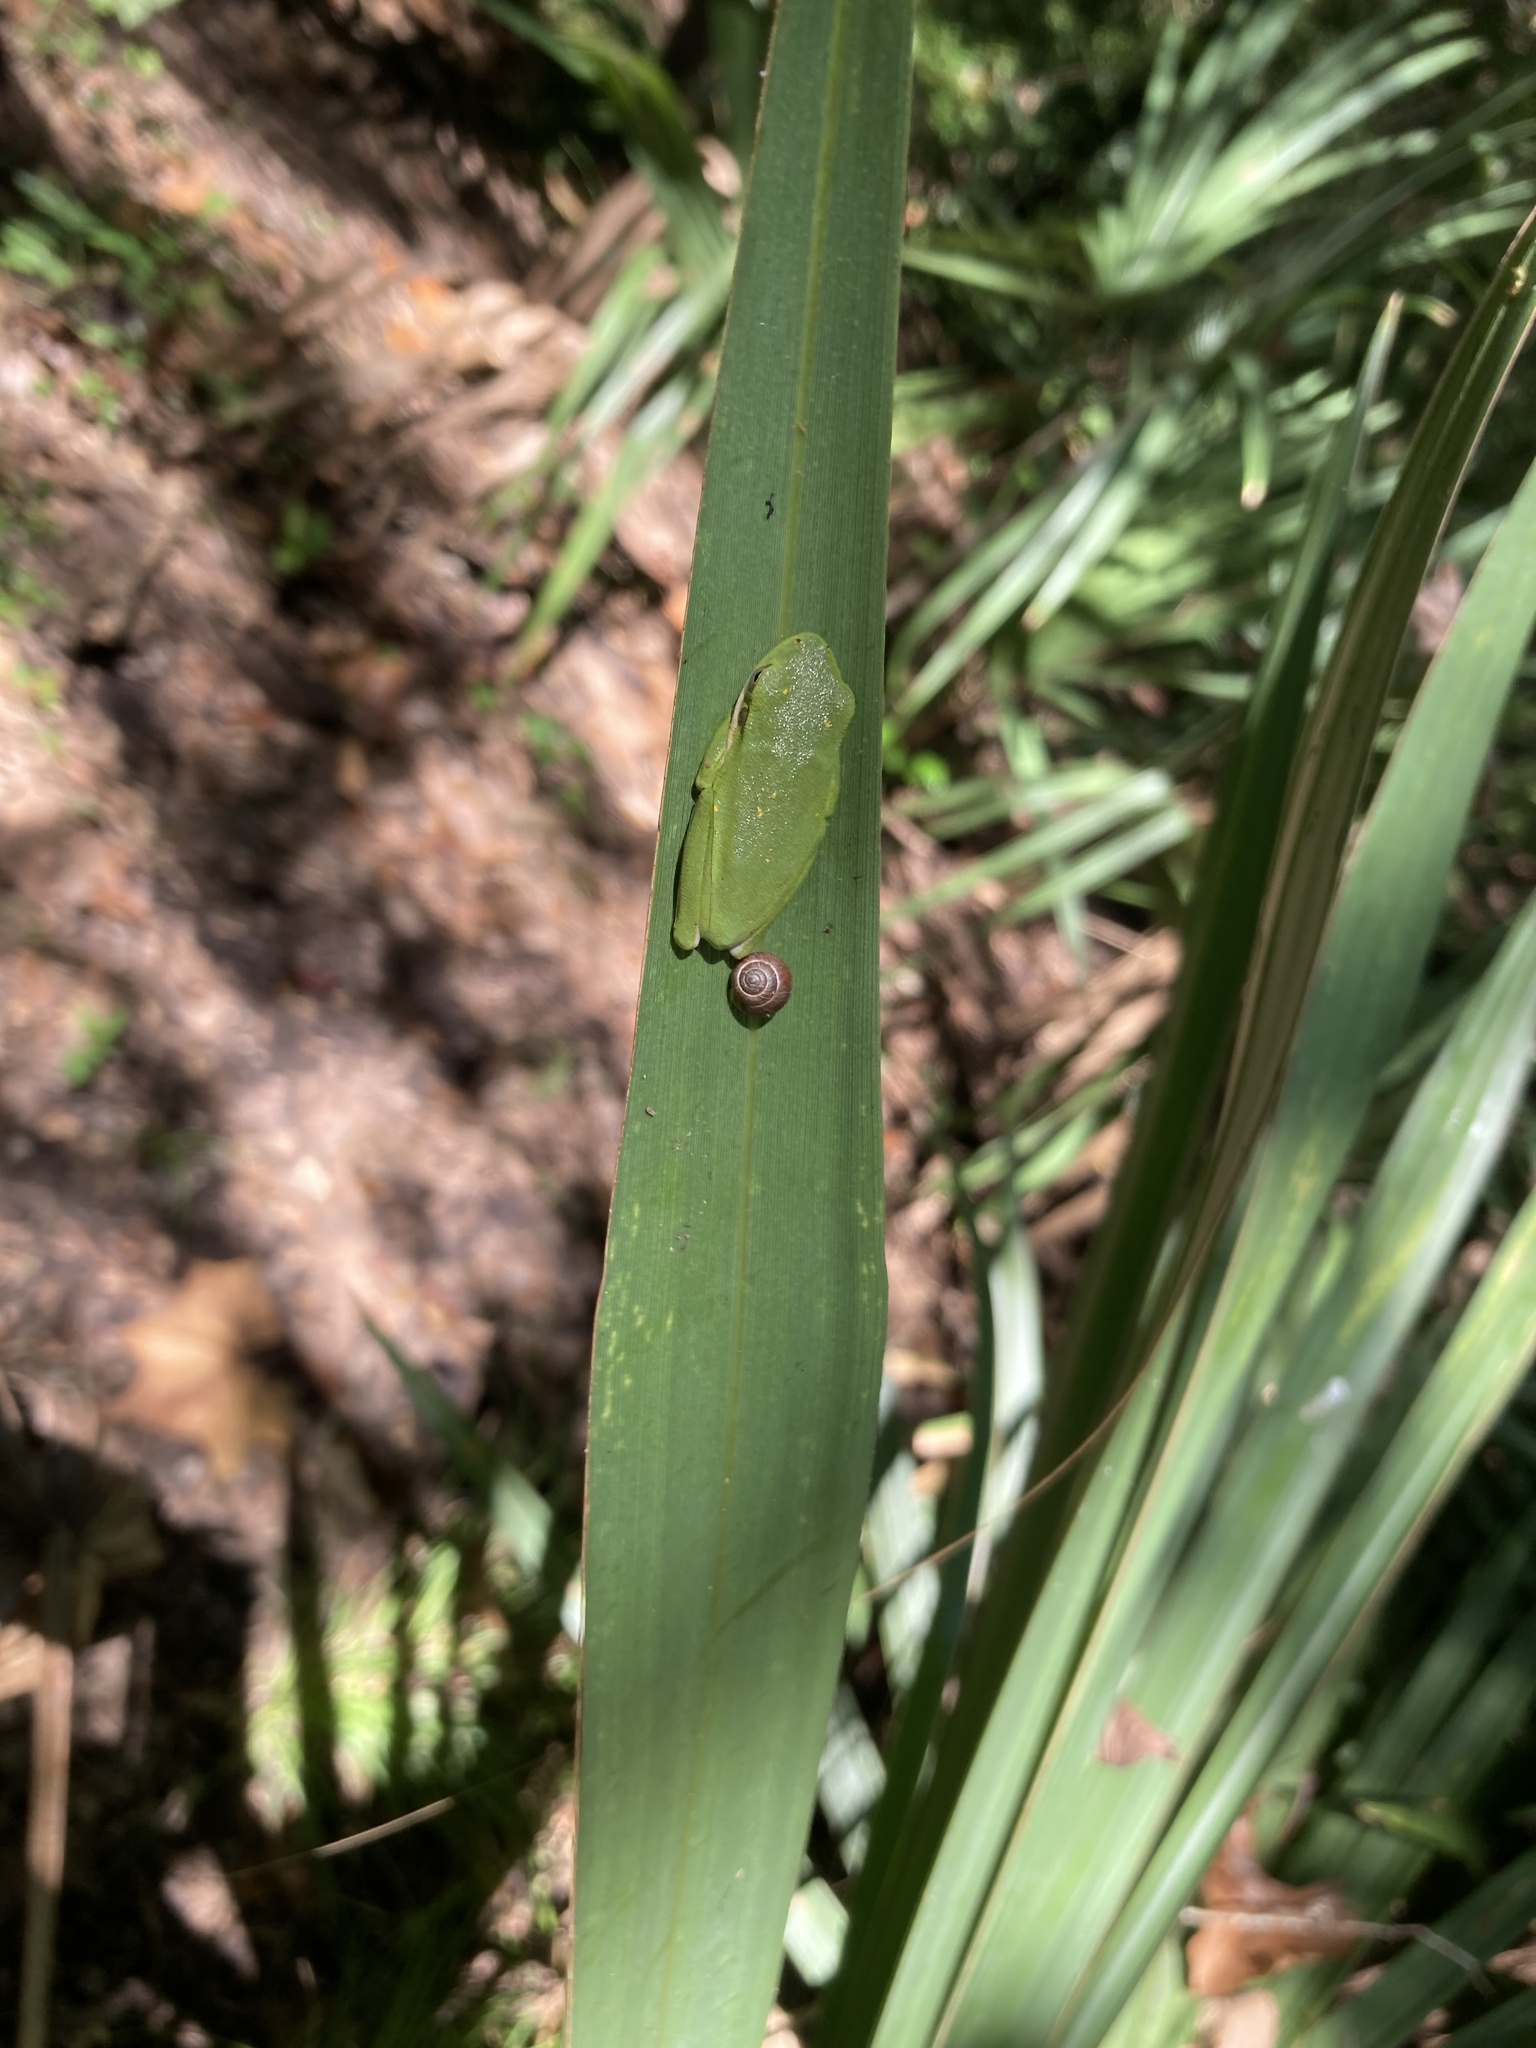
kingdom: Animalia
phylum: Chordata
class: Amphibia
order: Anura
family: Hylidae
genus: Dryophytes
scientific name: Dryophytes cinereus
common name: Green treefrog
